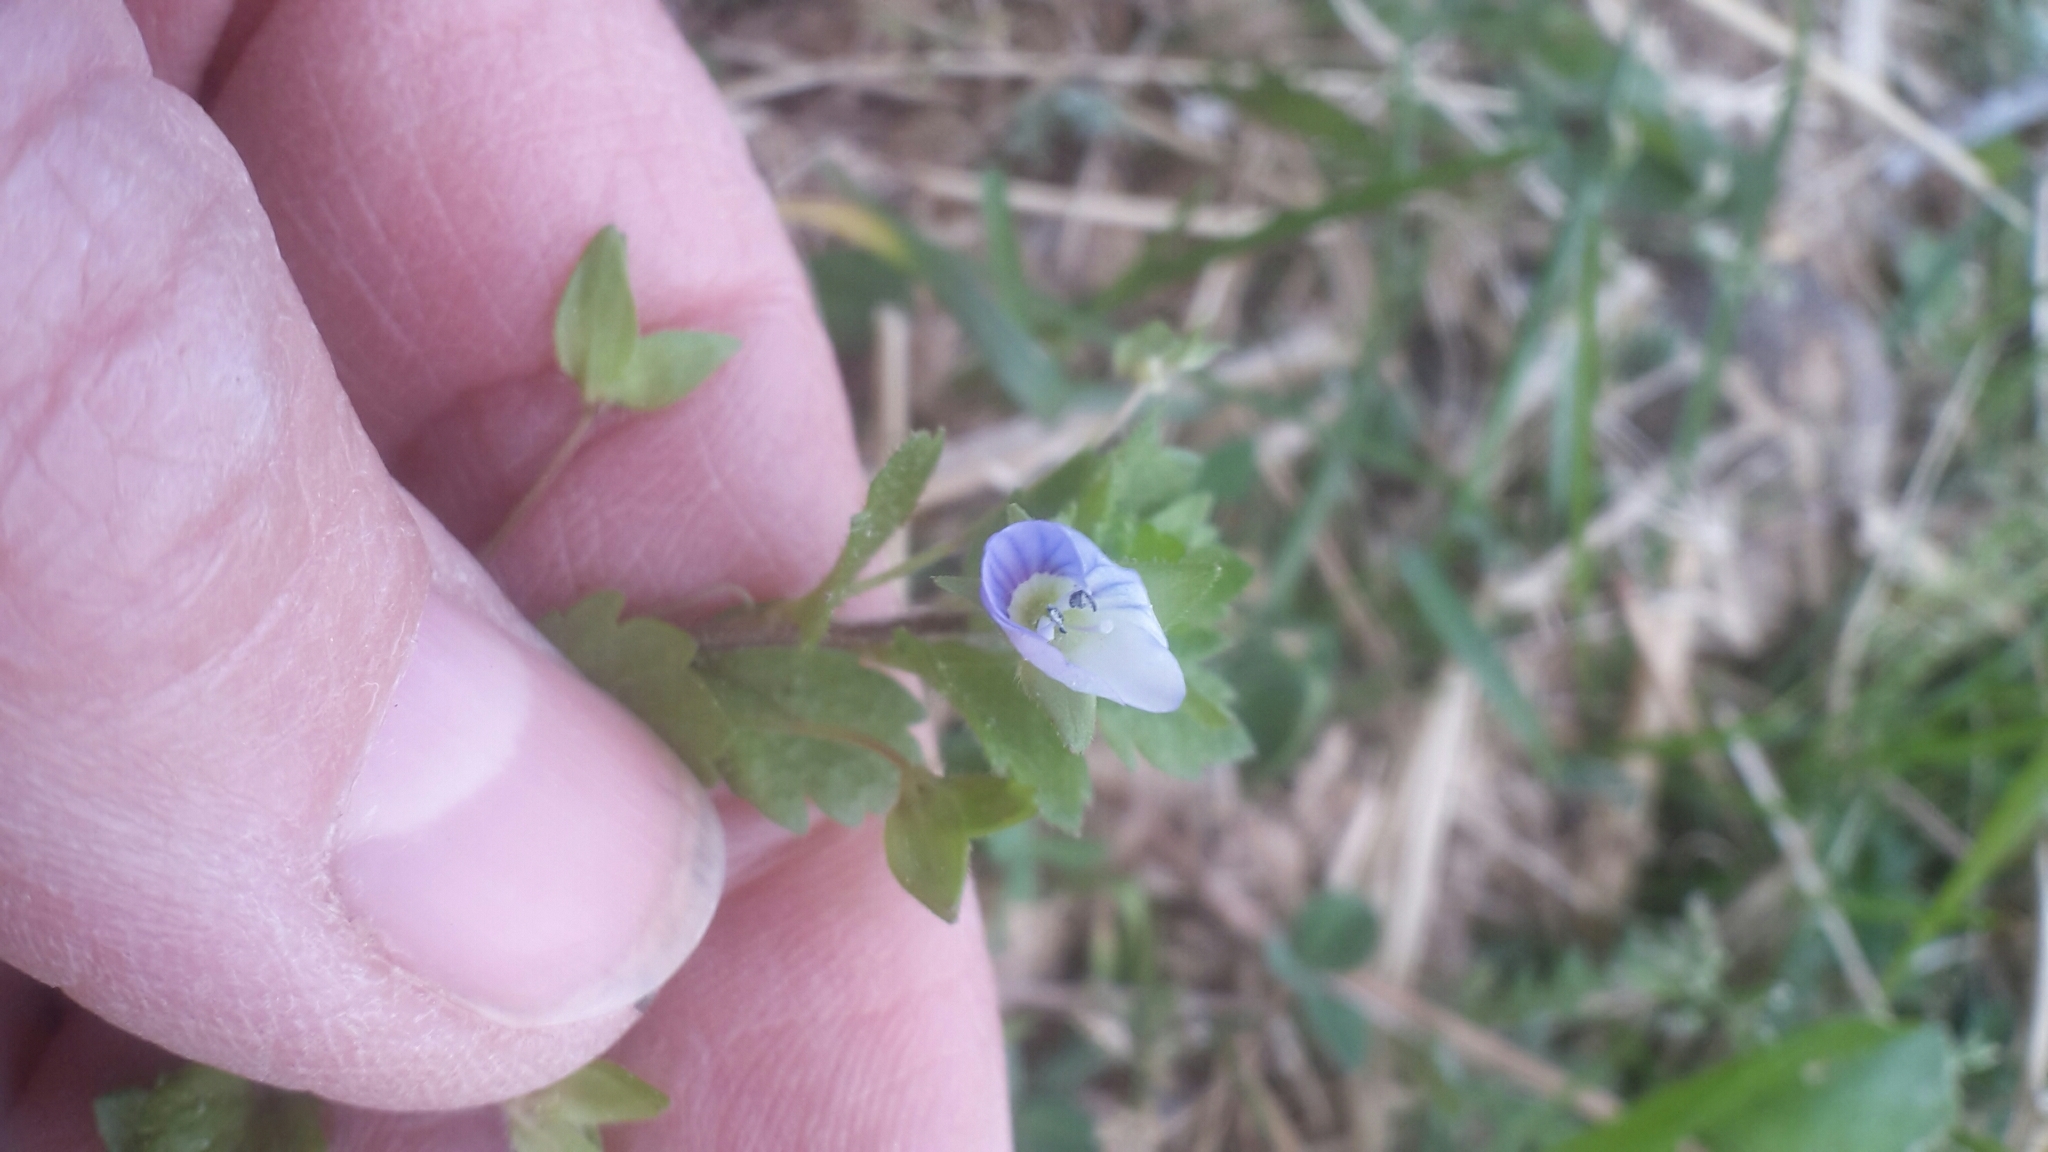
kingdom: Plantae
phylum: Tracheophyta
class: Magnoliopsida
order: Lamiales
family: Plantaginaceae
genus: Veronica
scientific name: Veronica persica
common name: Common field-speedwell
